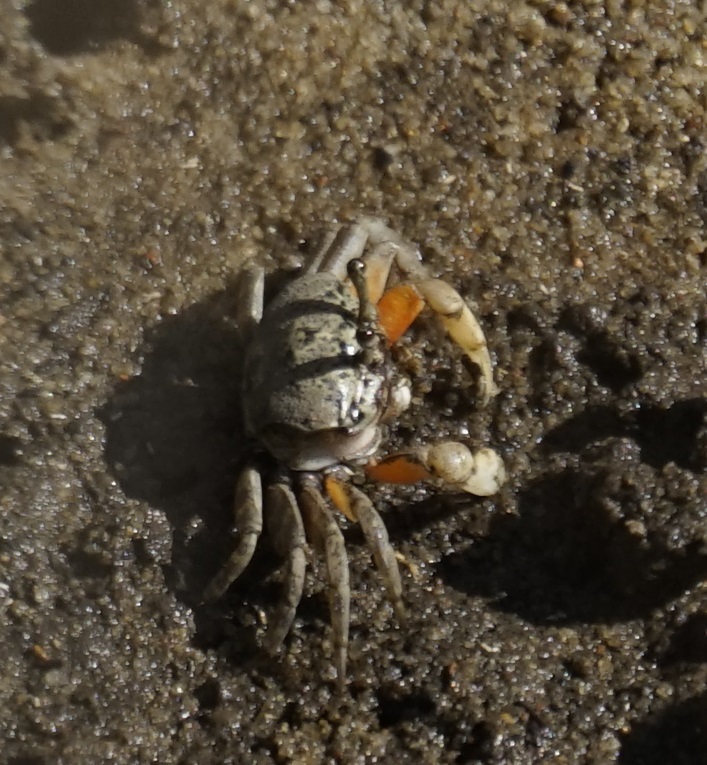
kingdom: Animalia
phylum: Arthropoda
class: Malacostraca
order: Decapoda
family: Heloeciidae
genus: Heloecius
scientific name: Heloecius cordiformis
